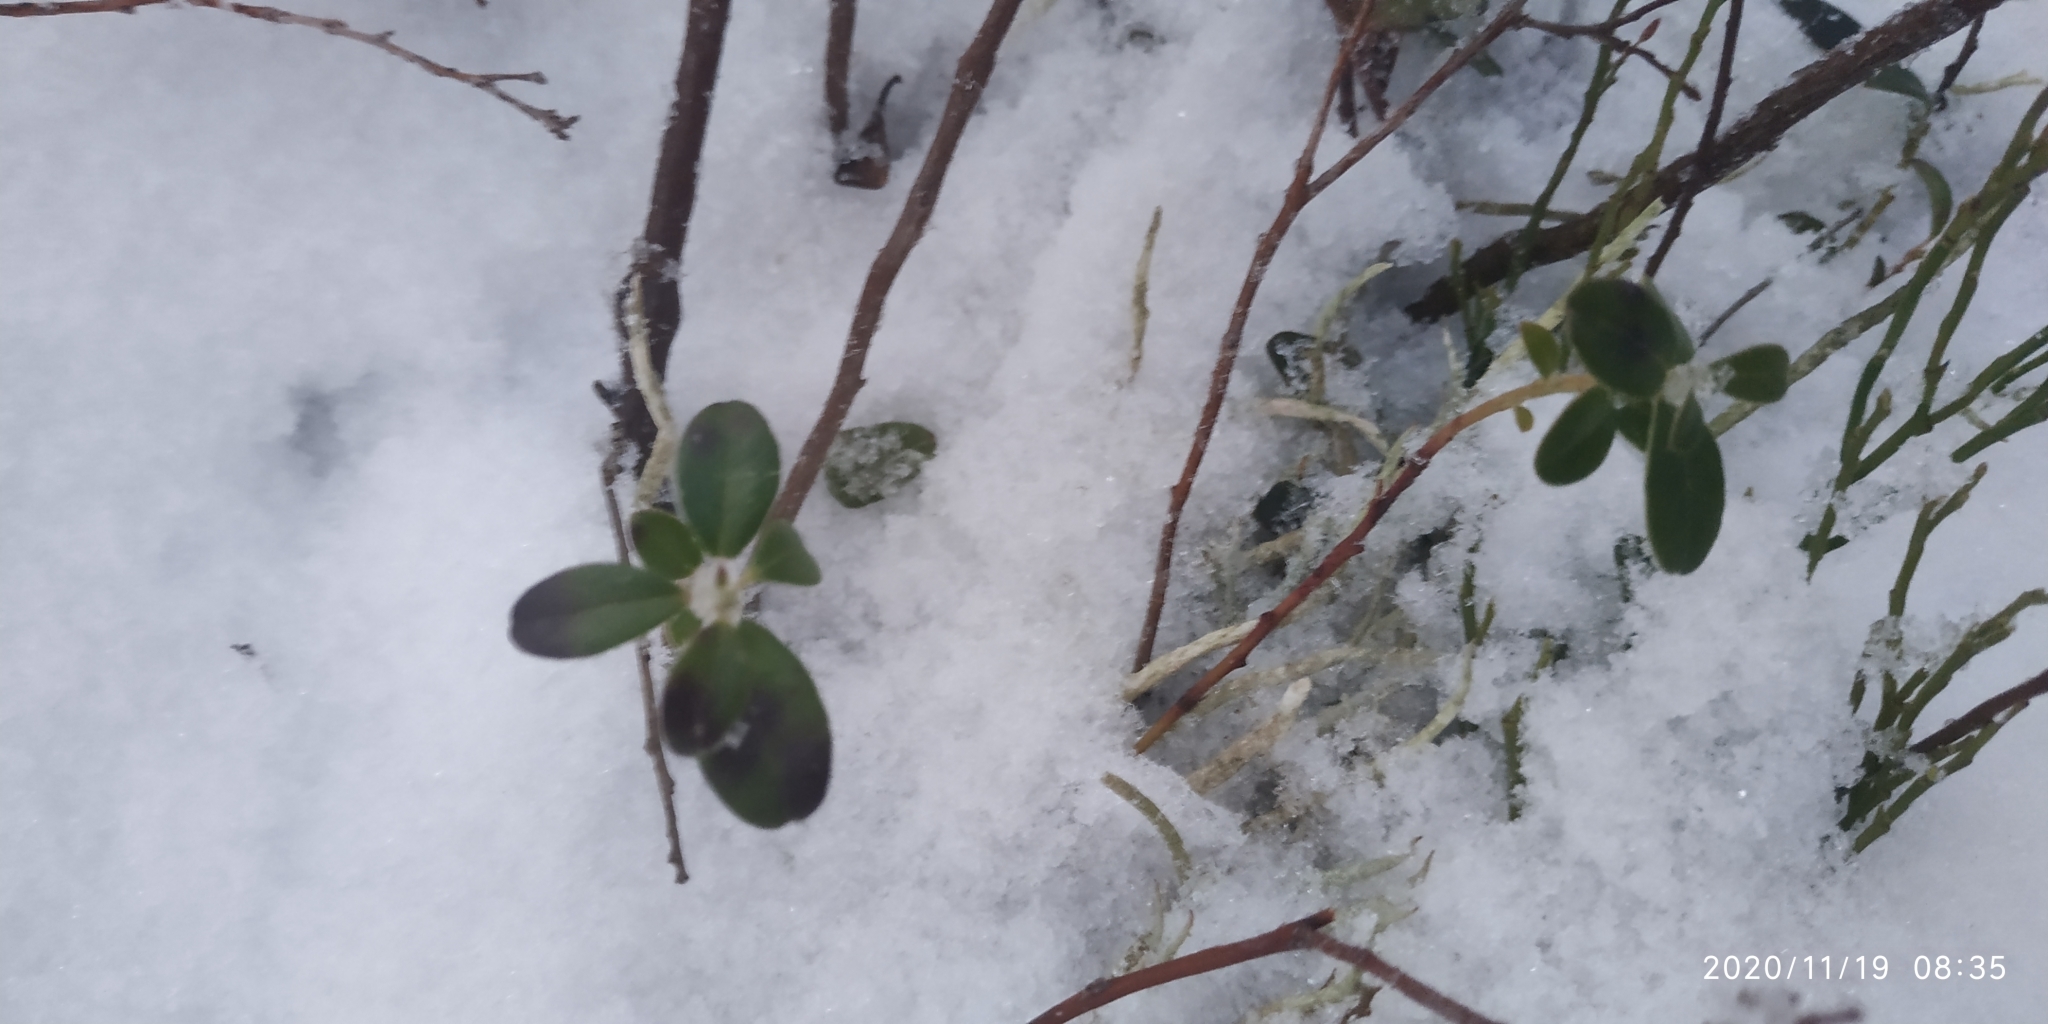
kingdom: Plantae
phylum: Tracheophyta
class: Magnoliopsida
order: Ericales
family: Ericaceae
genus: Vaccinium
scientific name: Vaccinium vitis-idaea
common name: Cowberry
